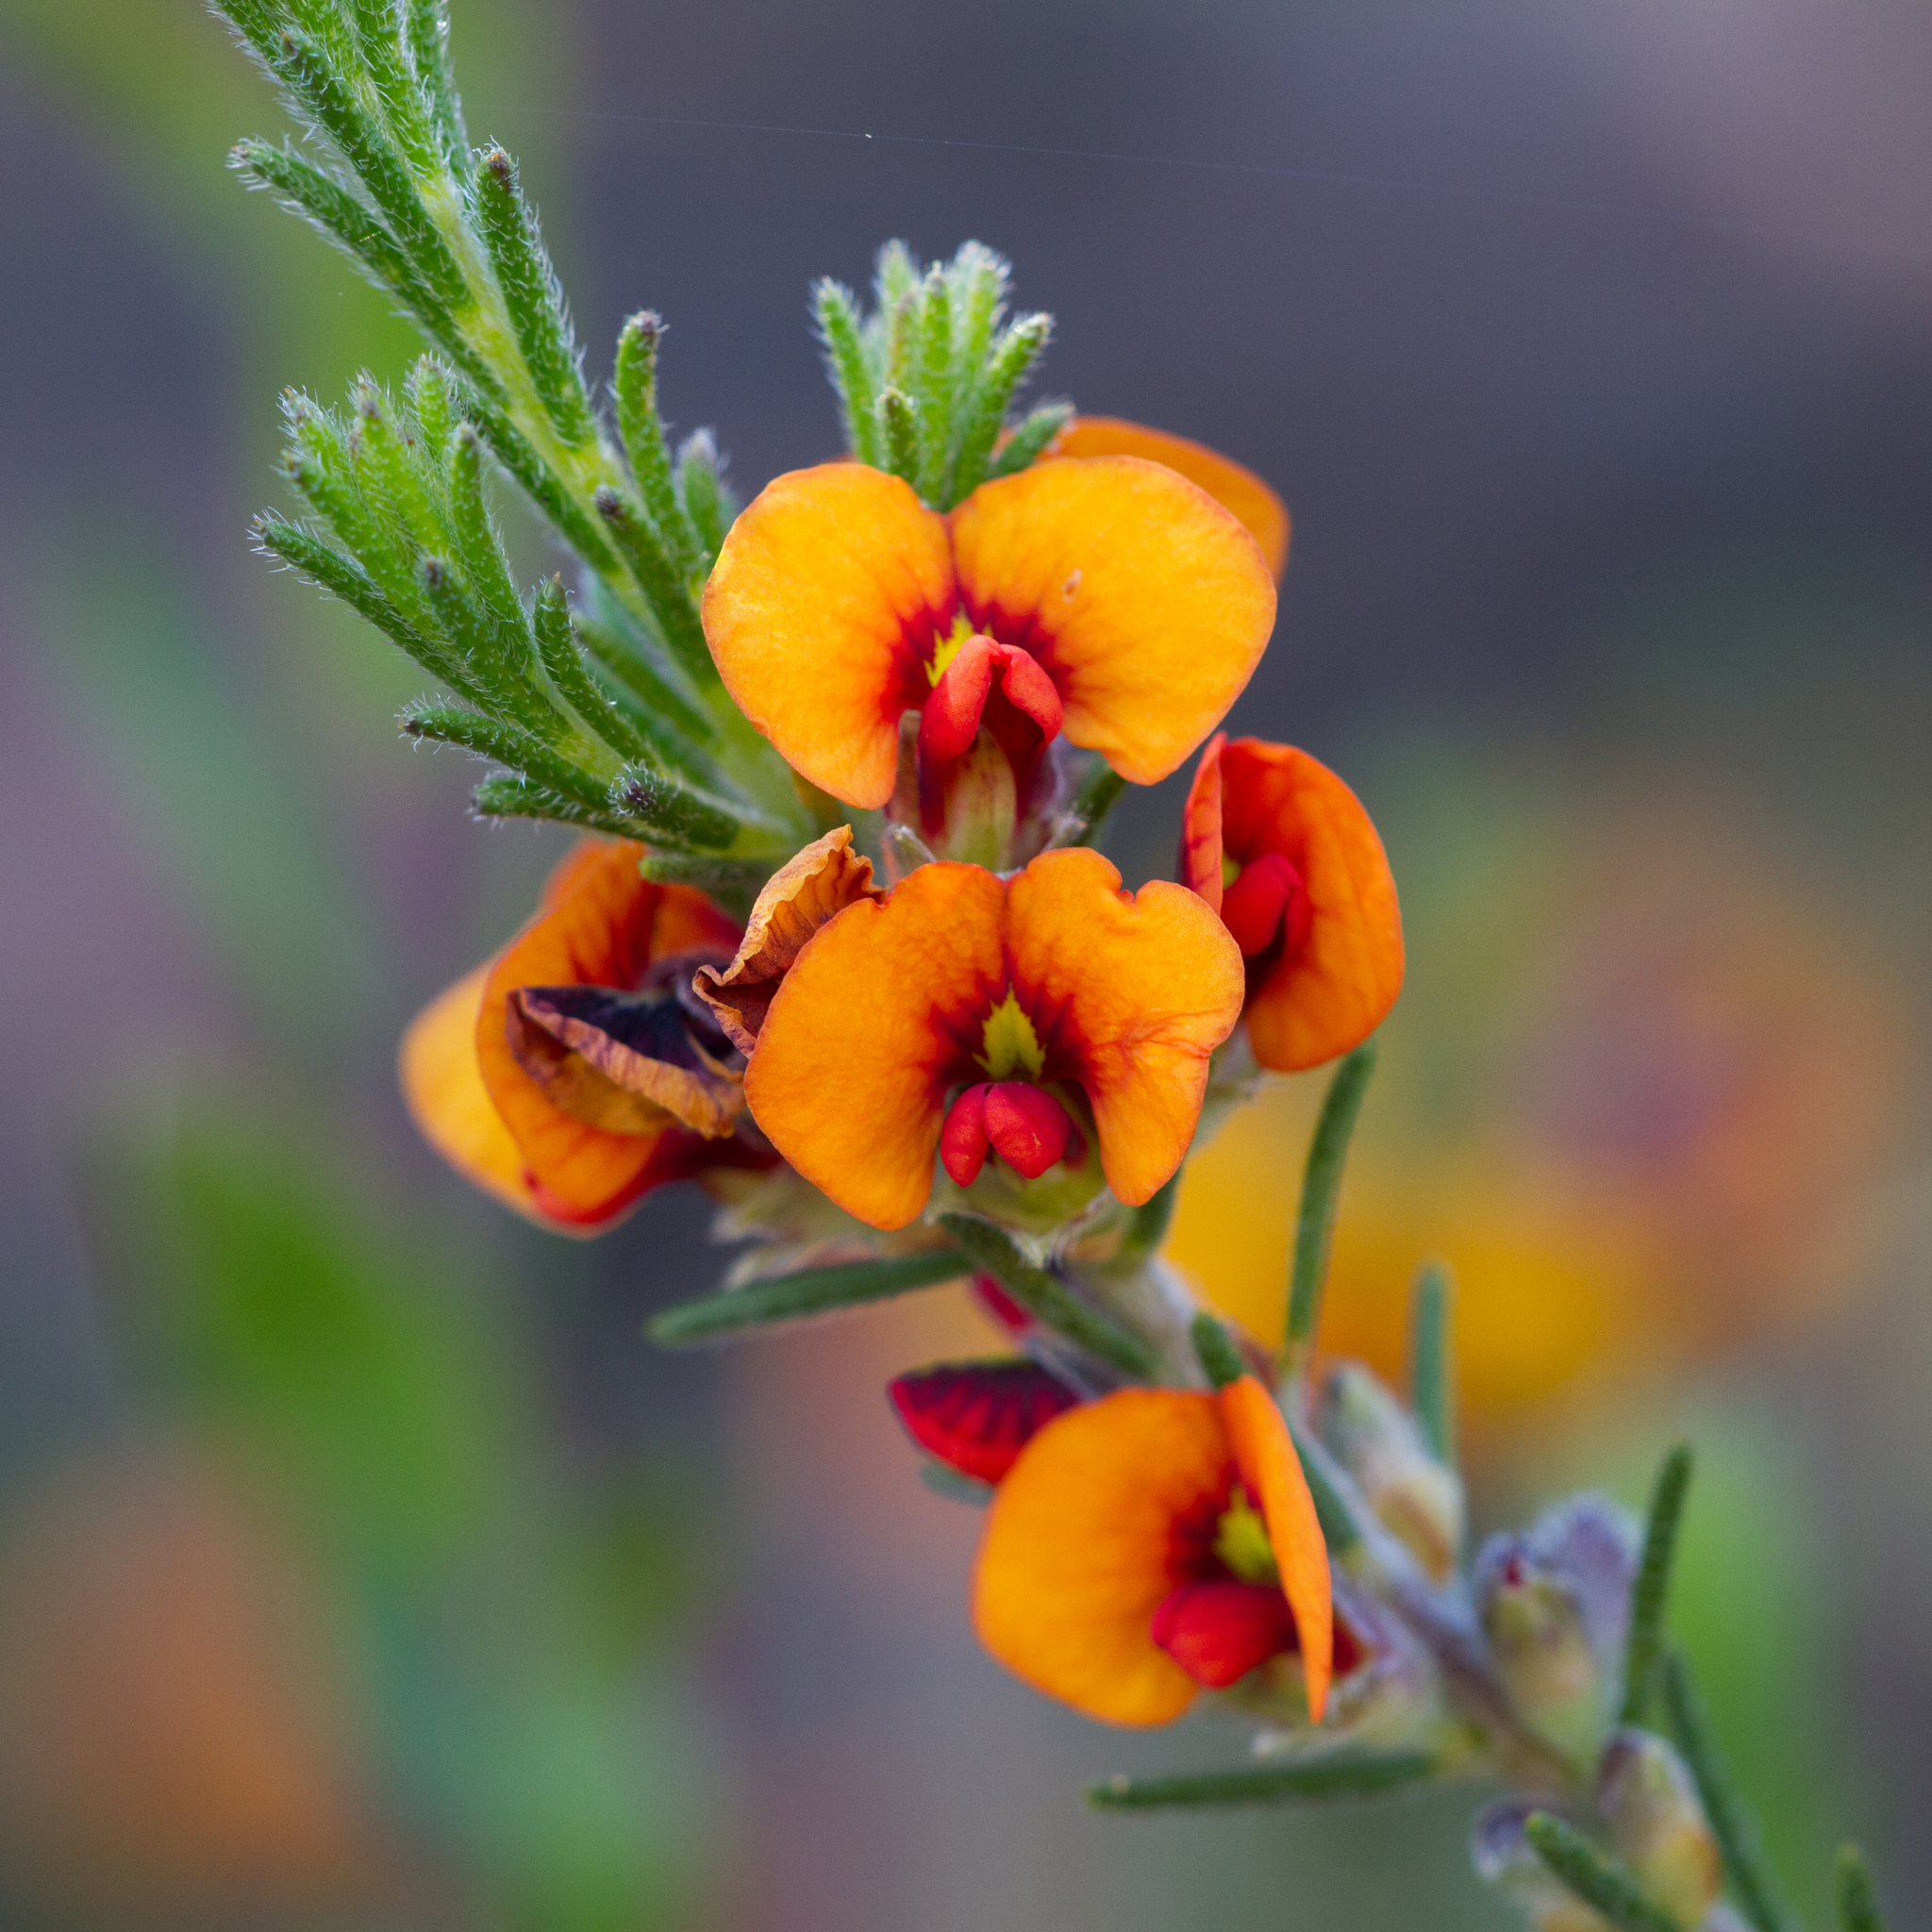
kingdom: Plantae
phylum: Tracheophyta
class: Magnoliopsida
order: Fabales
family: Fabaceae
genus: Dillwynia
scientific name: Dillwynia sericea
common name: Showy parrot-pea
